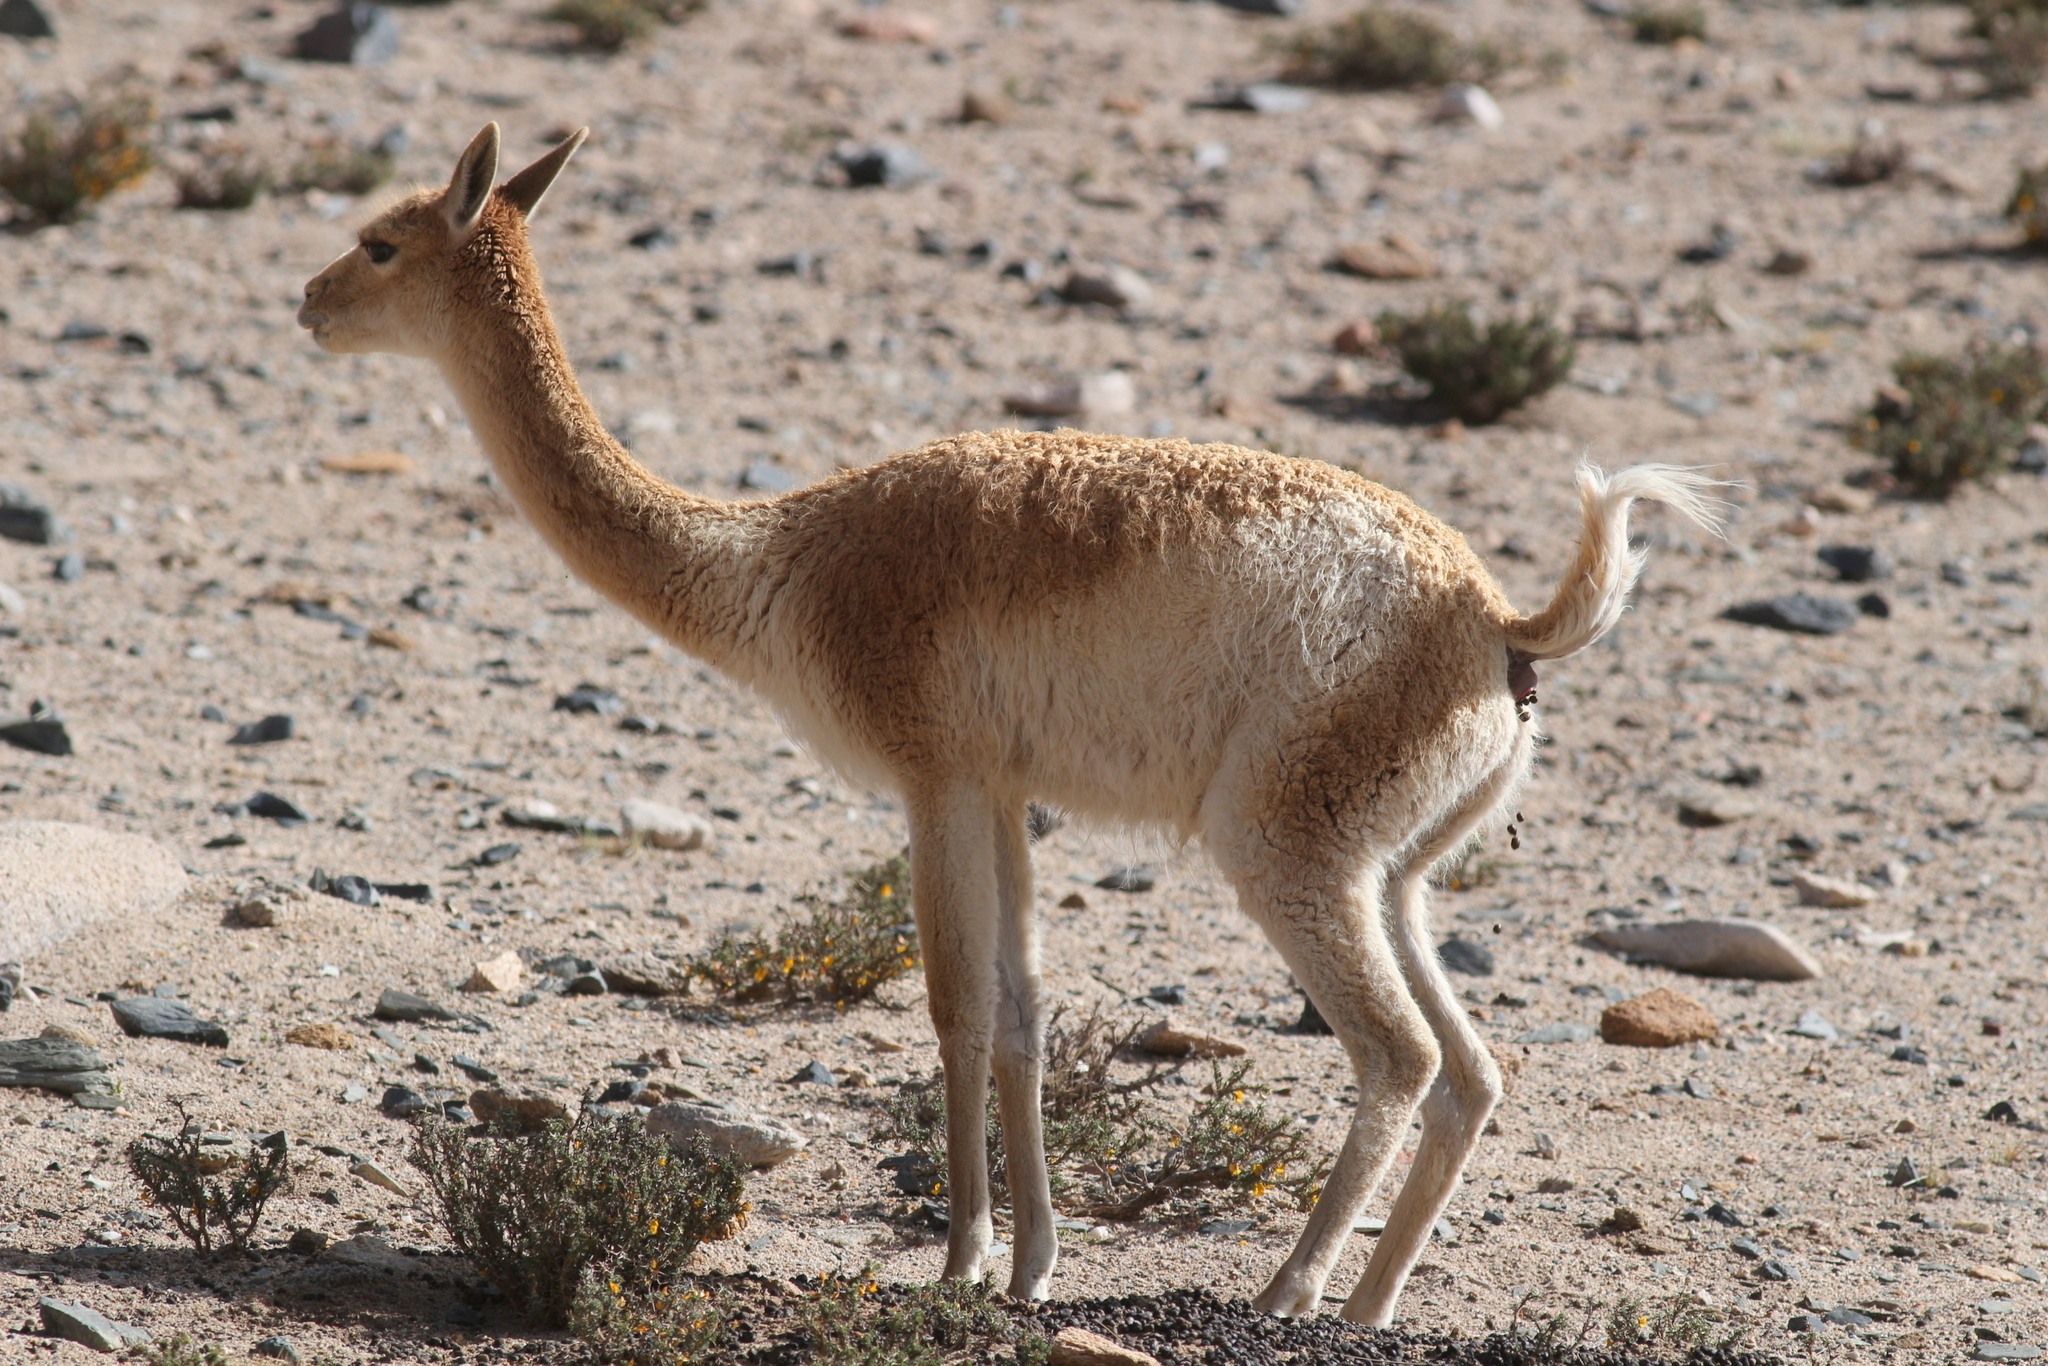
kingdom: Animalia
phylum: Chordata
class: Mammalia
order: Artiodactyla
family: Camelidae
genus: Vicugna
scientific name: Vicugna vicugna
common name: Vicugna
